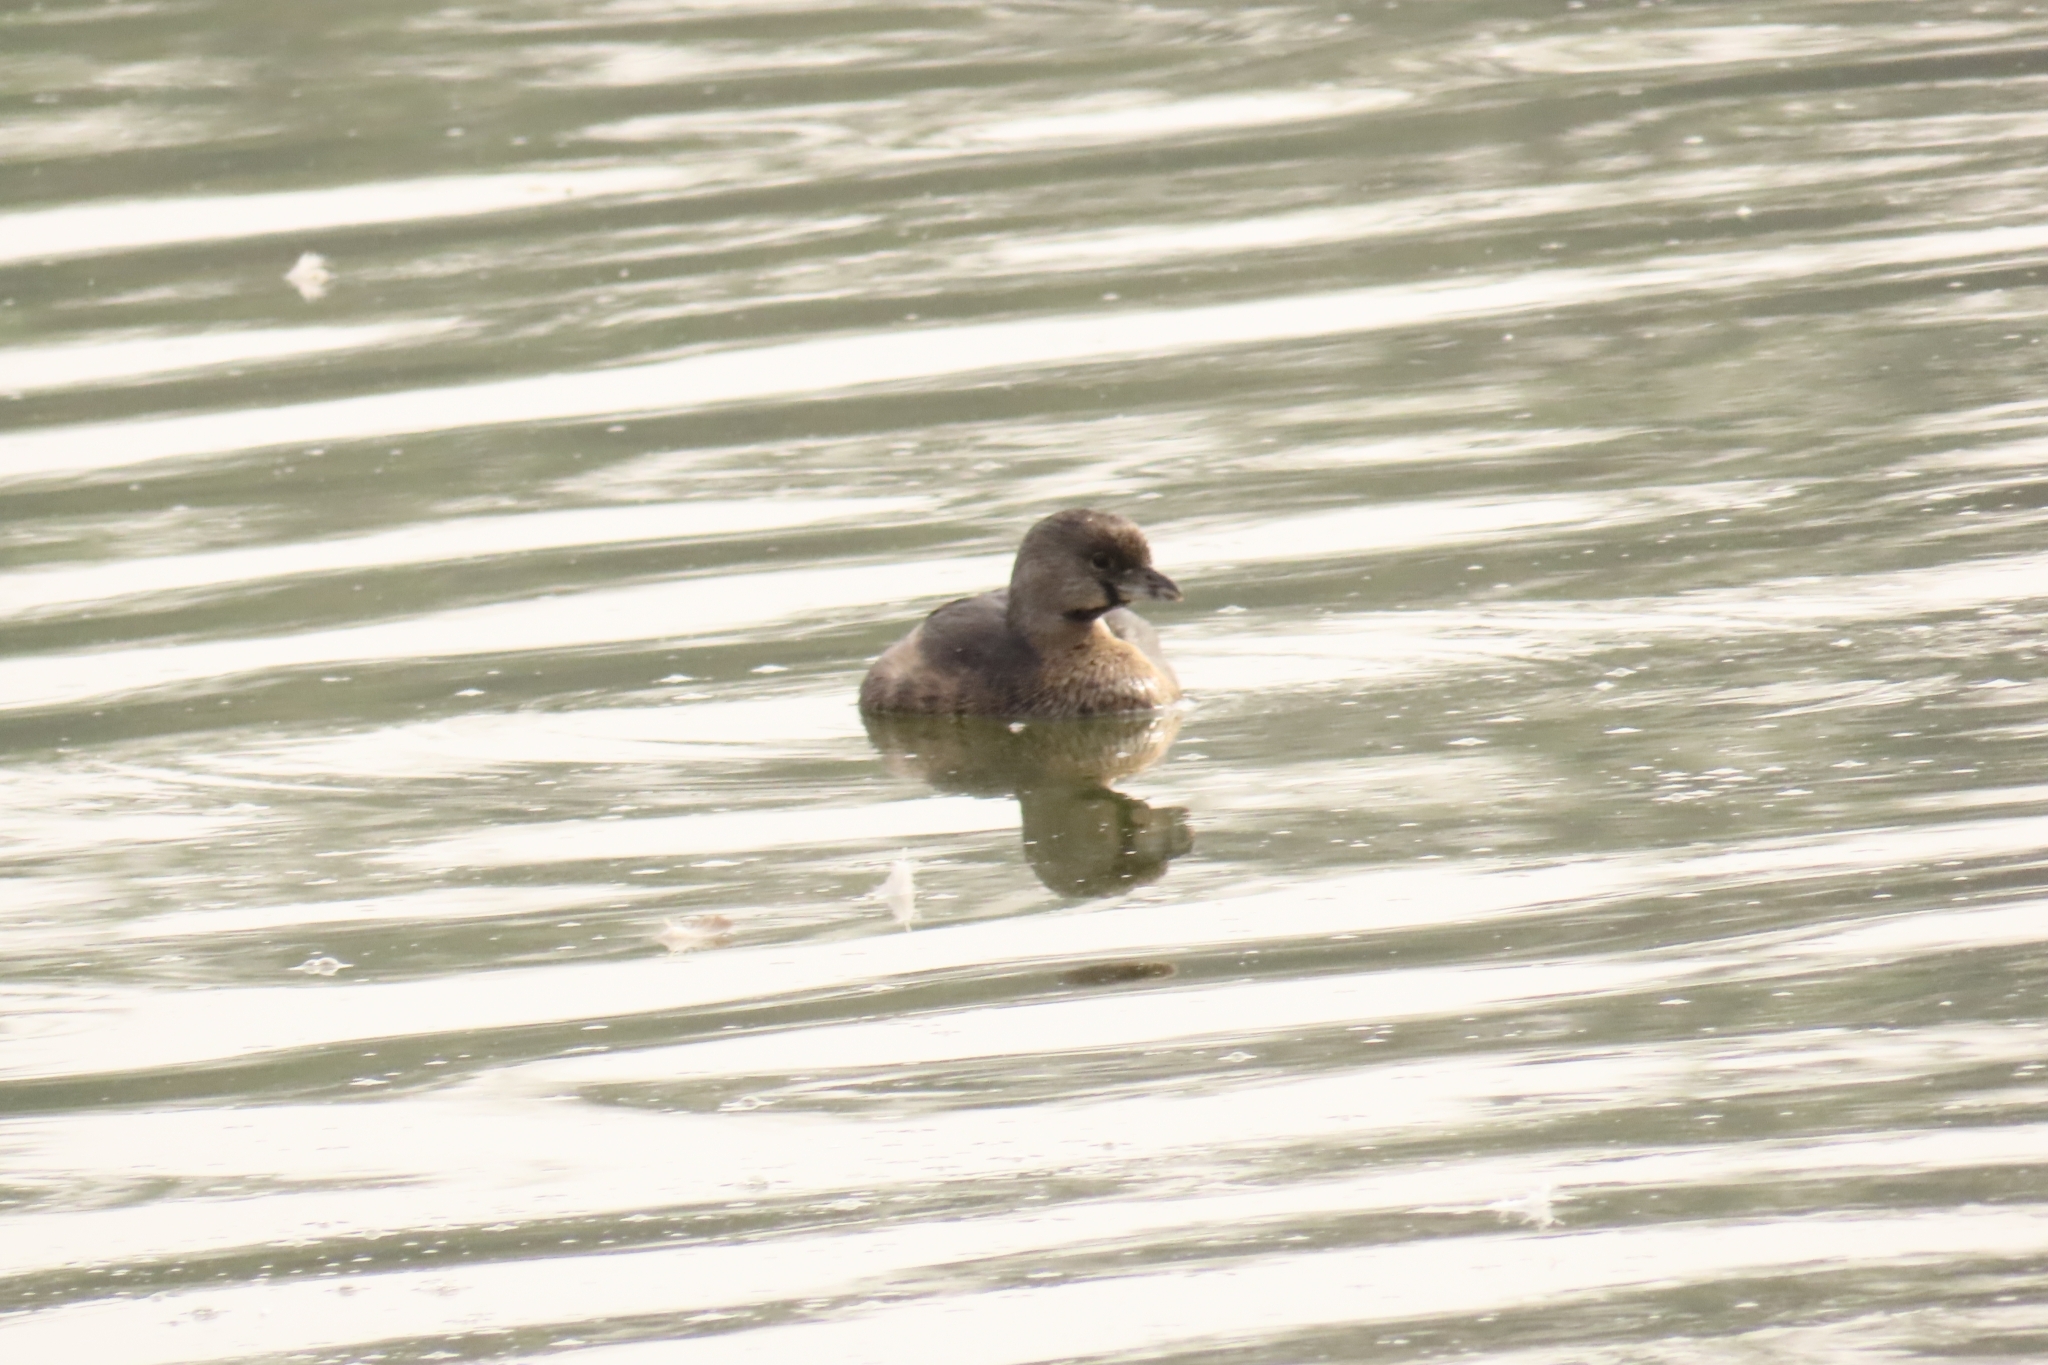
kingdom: Animalia
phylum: Chordata
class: Aves
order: Podicipediformes
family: Podicipedidae
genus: Podilymbus
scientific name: Podilymbus podiceps
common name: Pied-billed grebe
